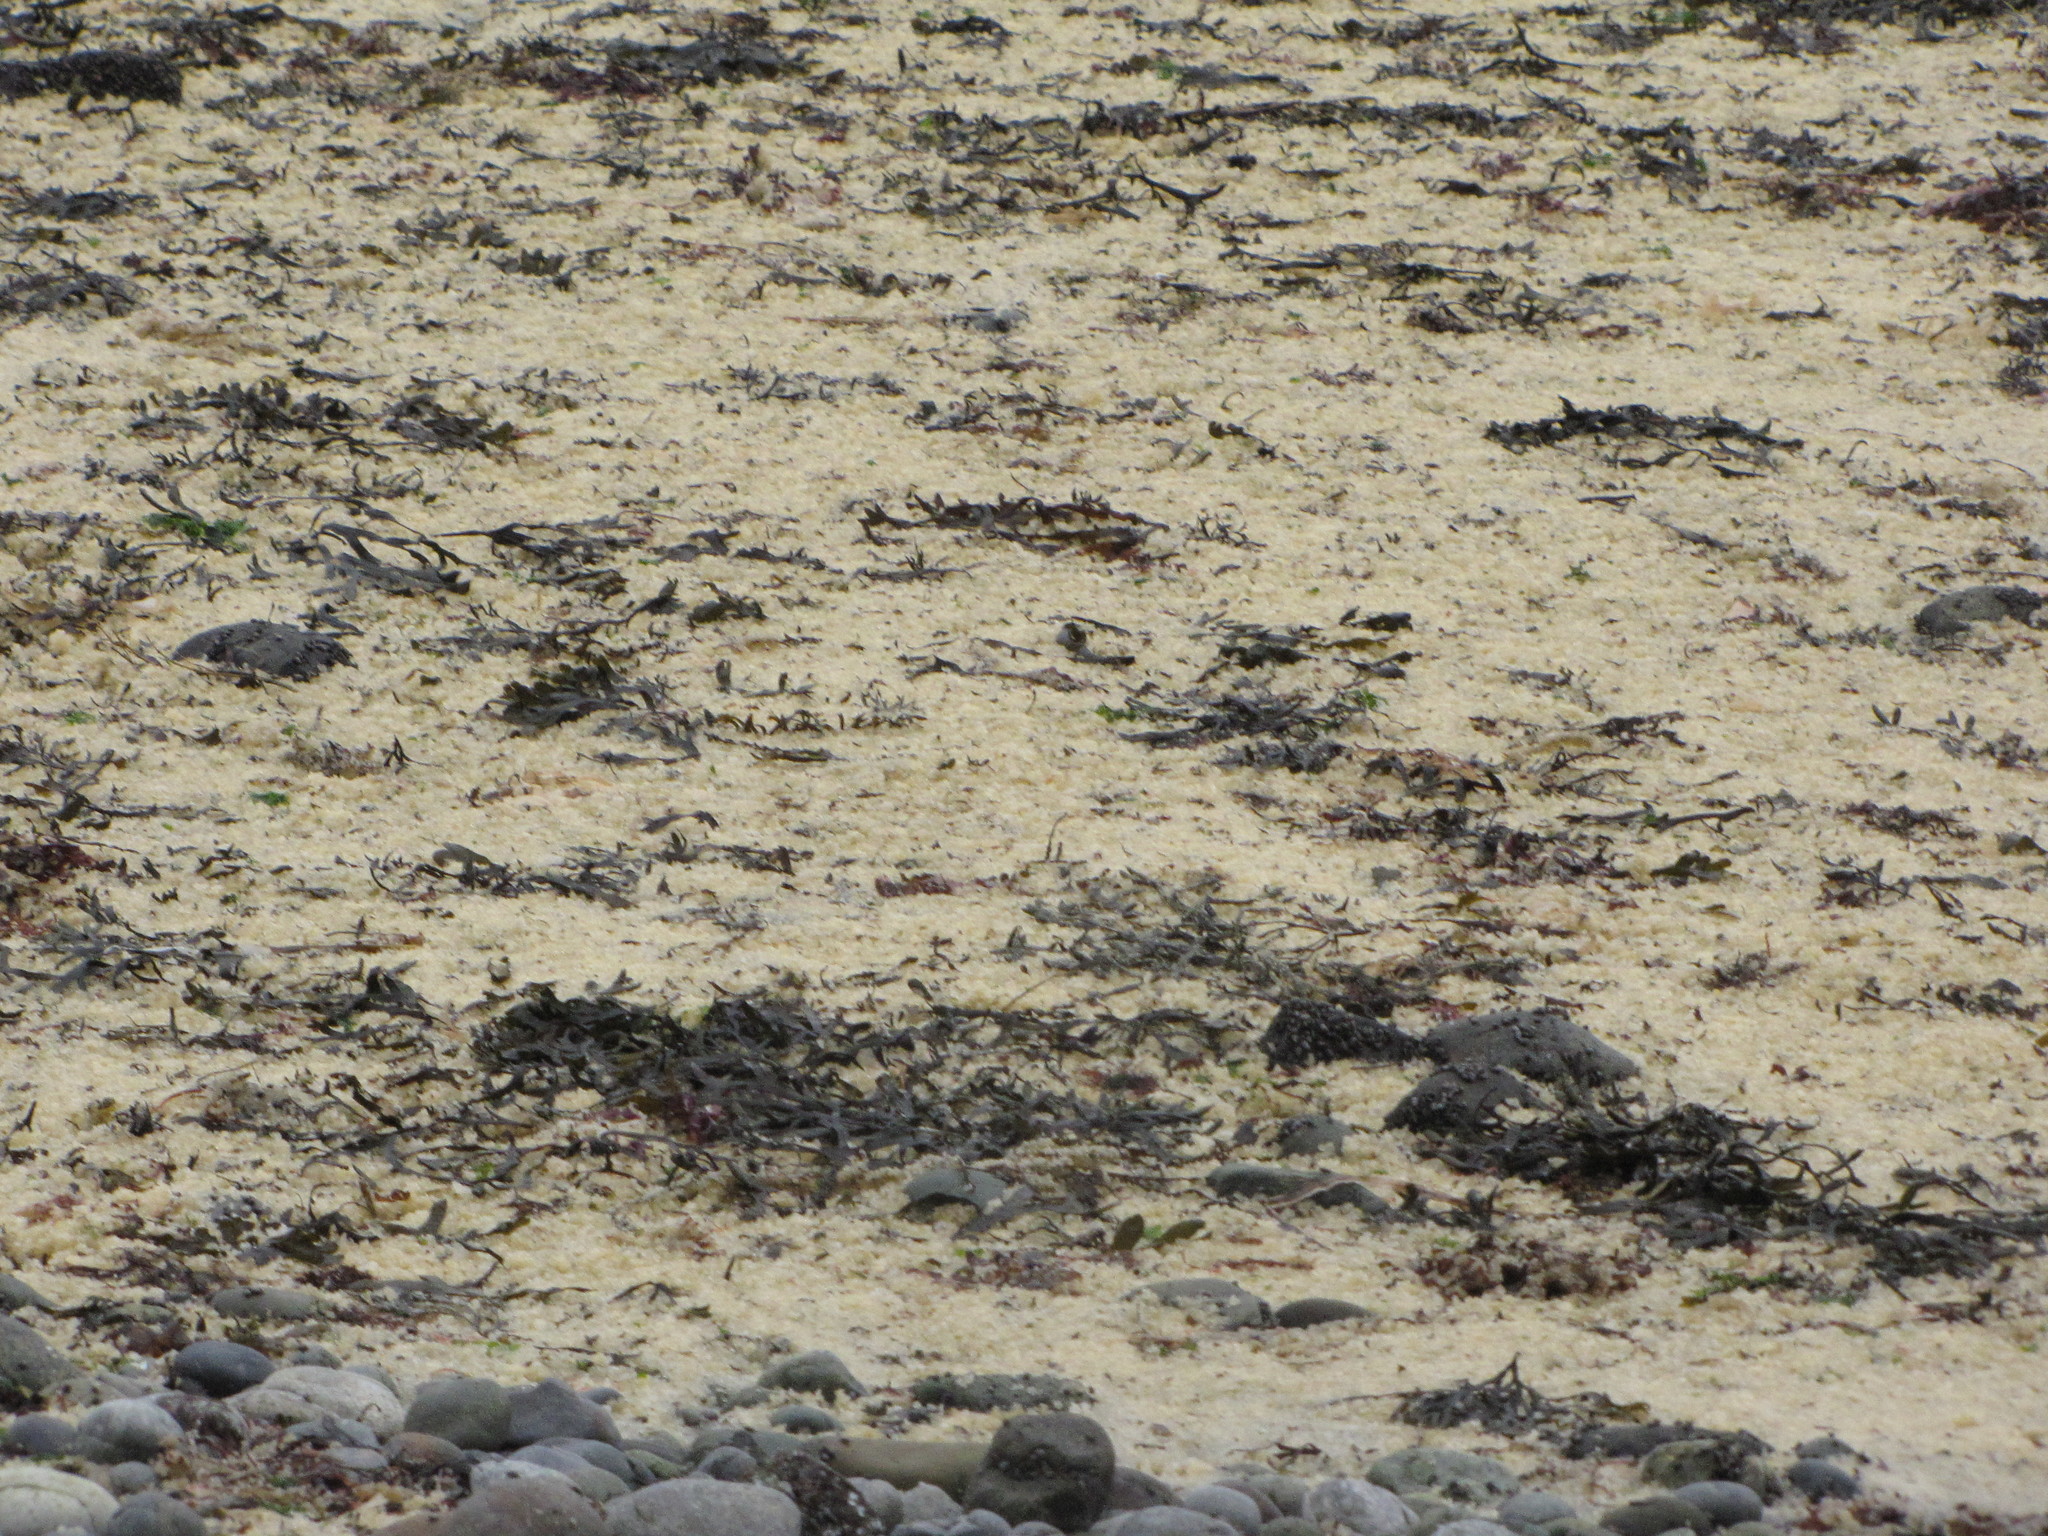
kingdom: Animalia
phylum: Chordata
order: Clupeiformes
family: Clupeidae
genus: Clupea
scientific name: Clupea pallasii
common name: Pacific herring
